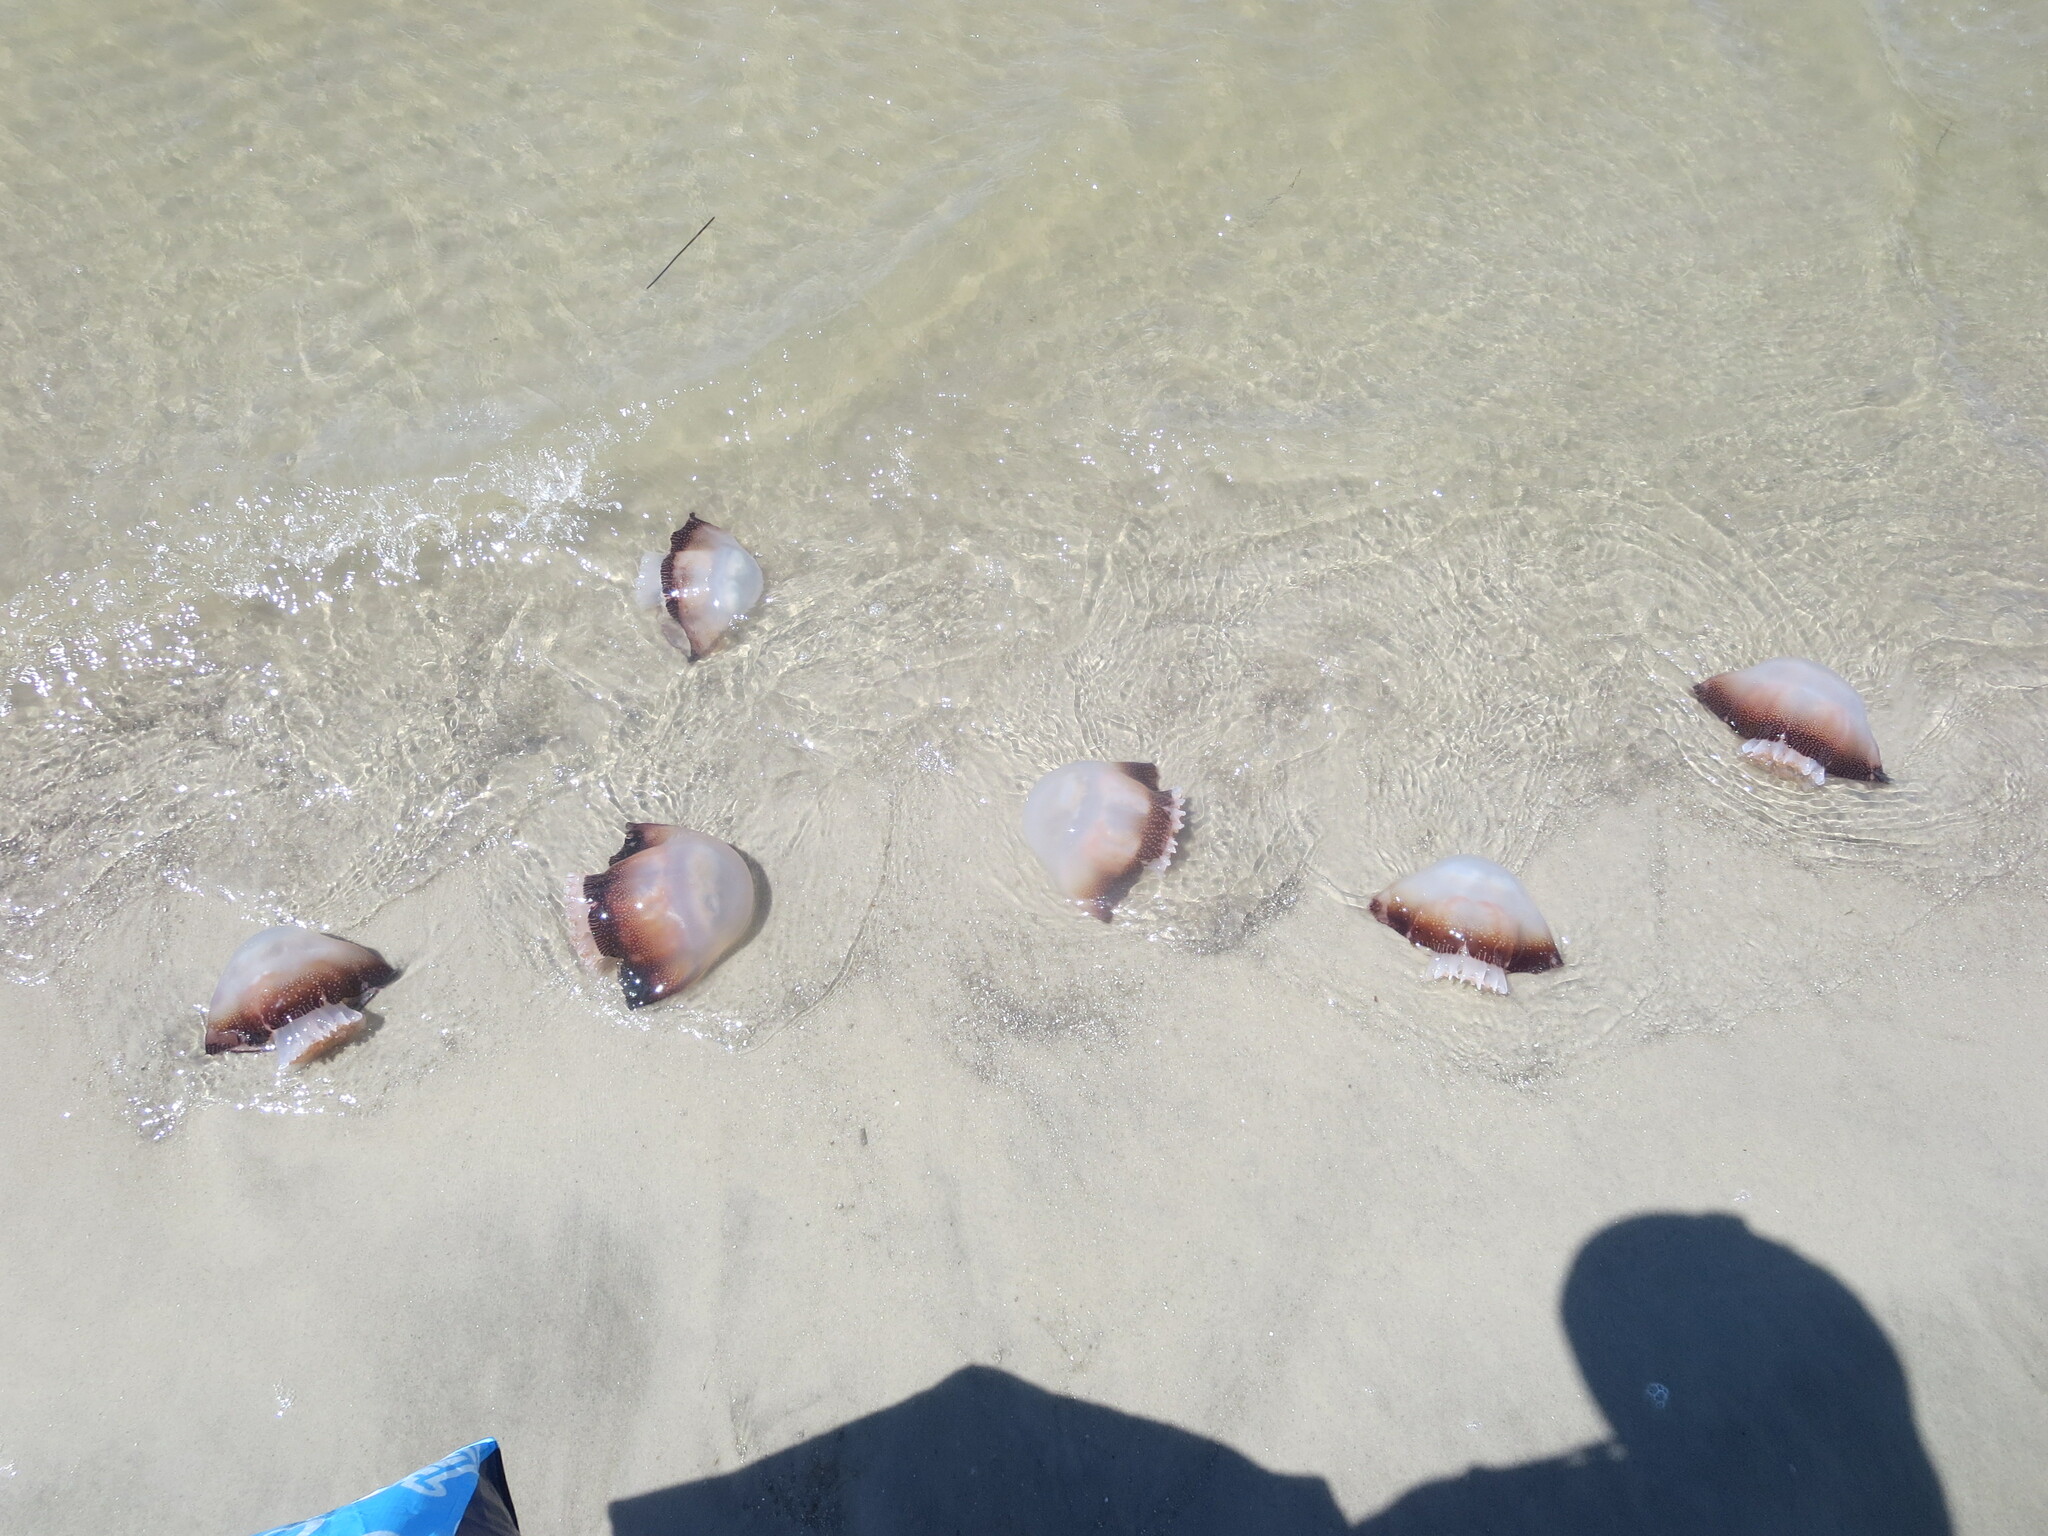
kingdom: Animalia
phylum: Cnidaria
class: Scyphozoa
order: Rhizostomeae
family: Stomolophidae
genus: Stomolophus
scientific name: Stomolophus meleagris
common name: Cabbagehead
